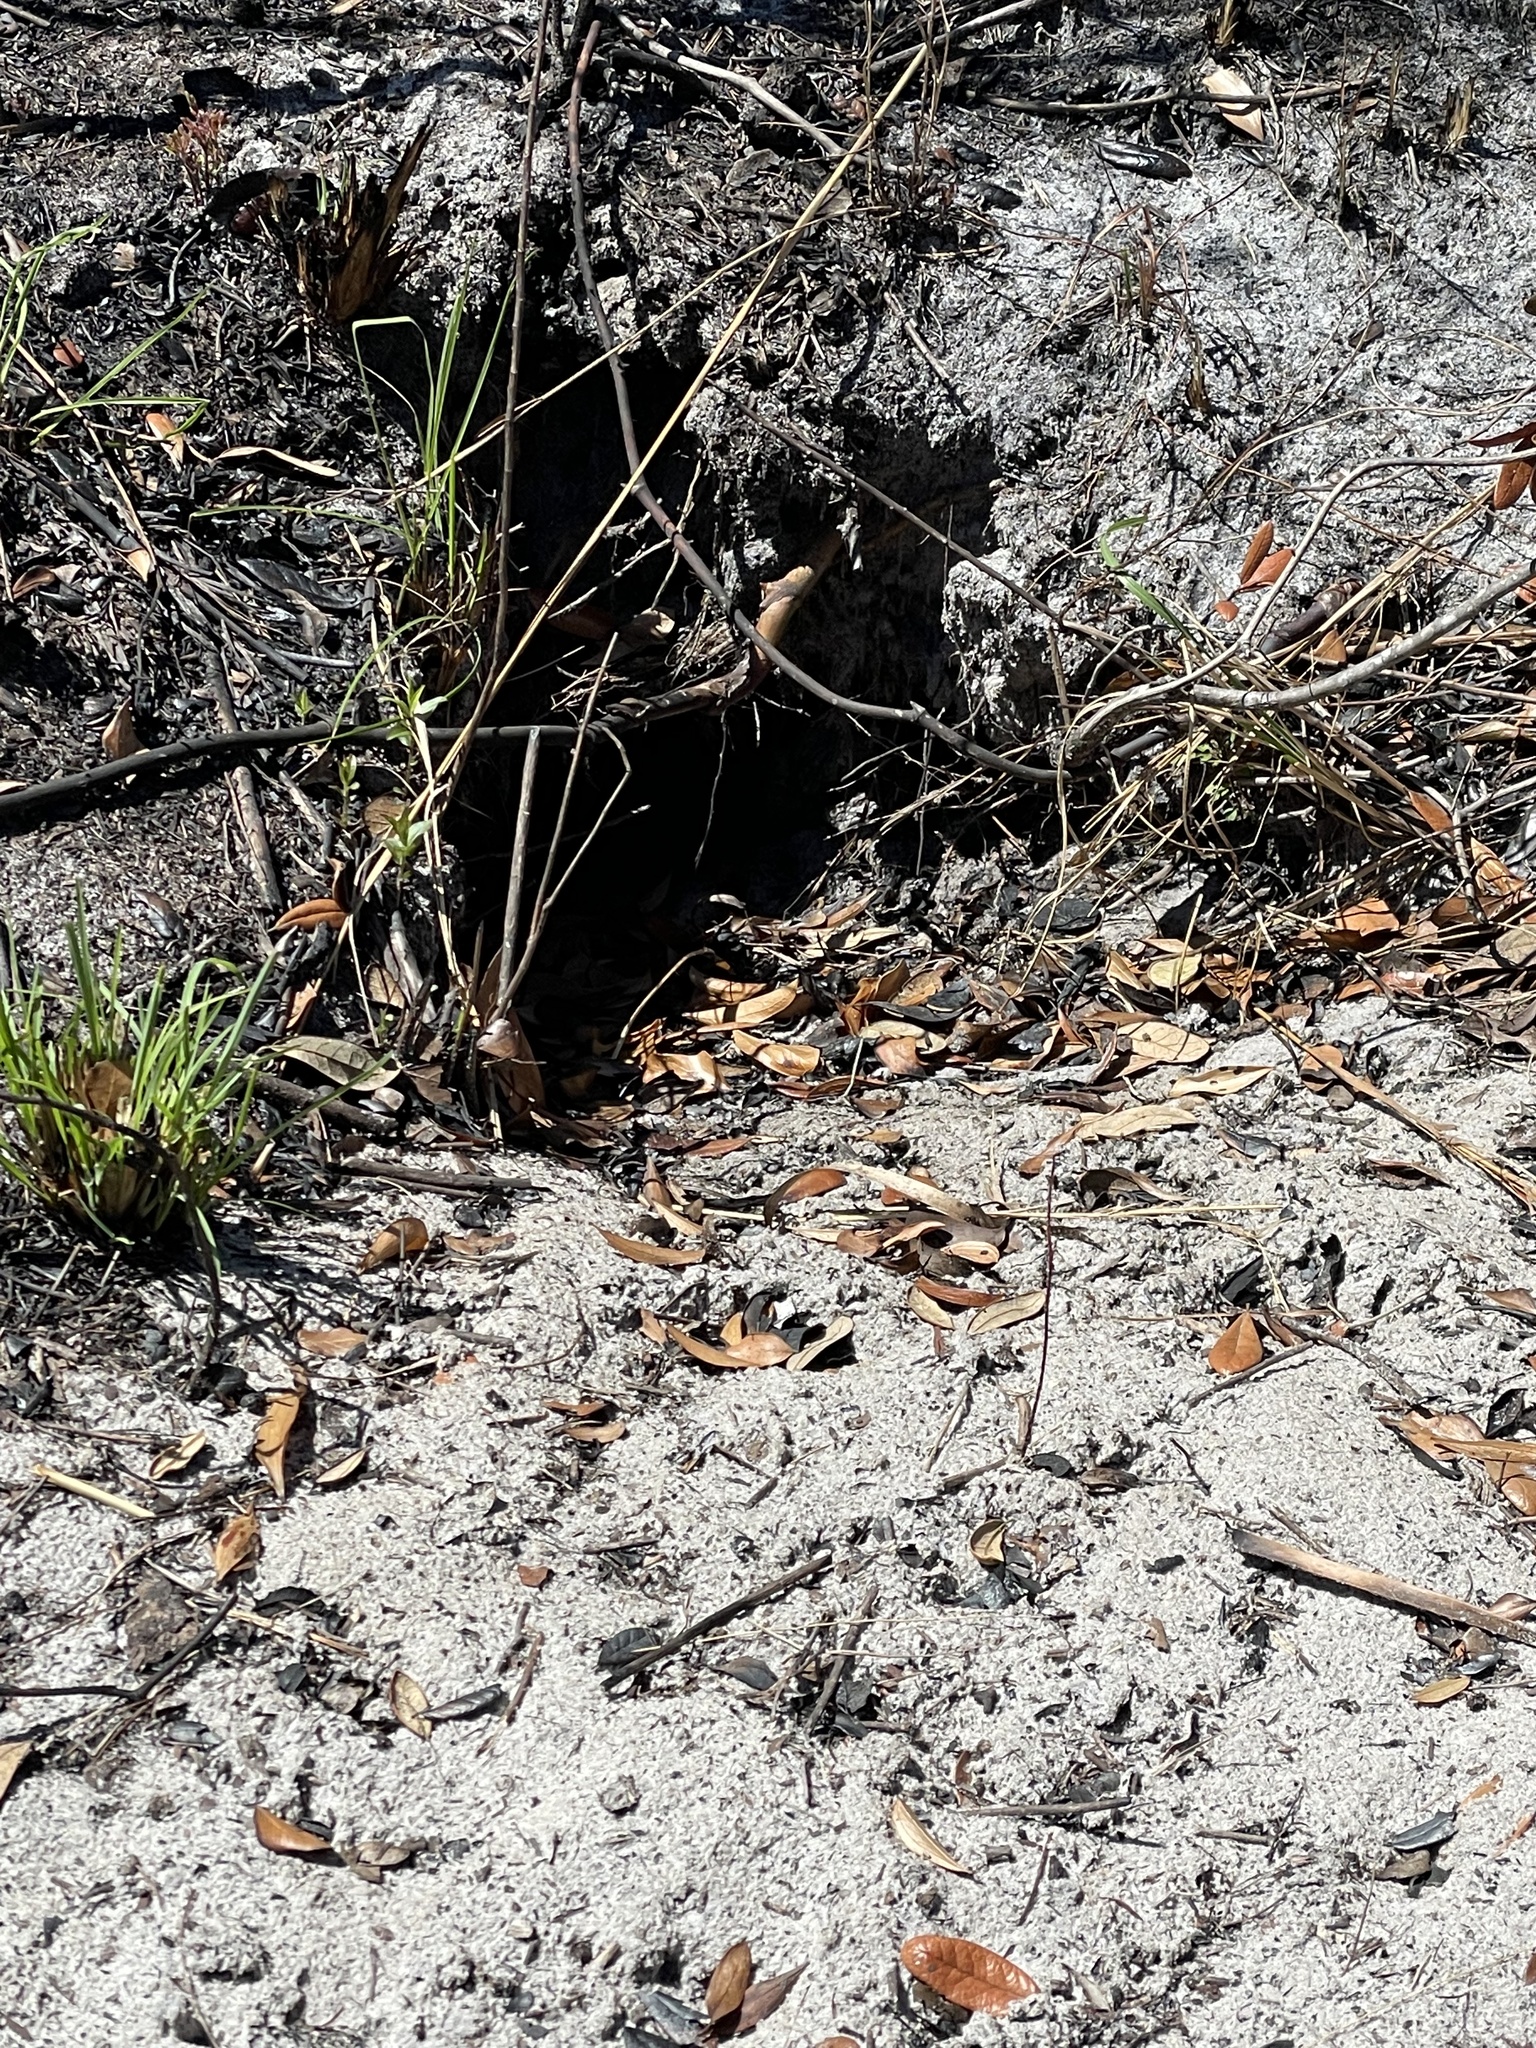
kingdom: Animalia
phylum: Chordata
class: Testudines
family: Testudinidae
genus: Gopherus
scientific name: Gopherus polyphemus
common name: Florida gopher tortoise
